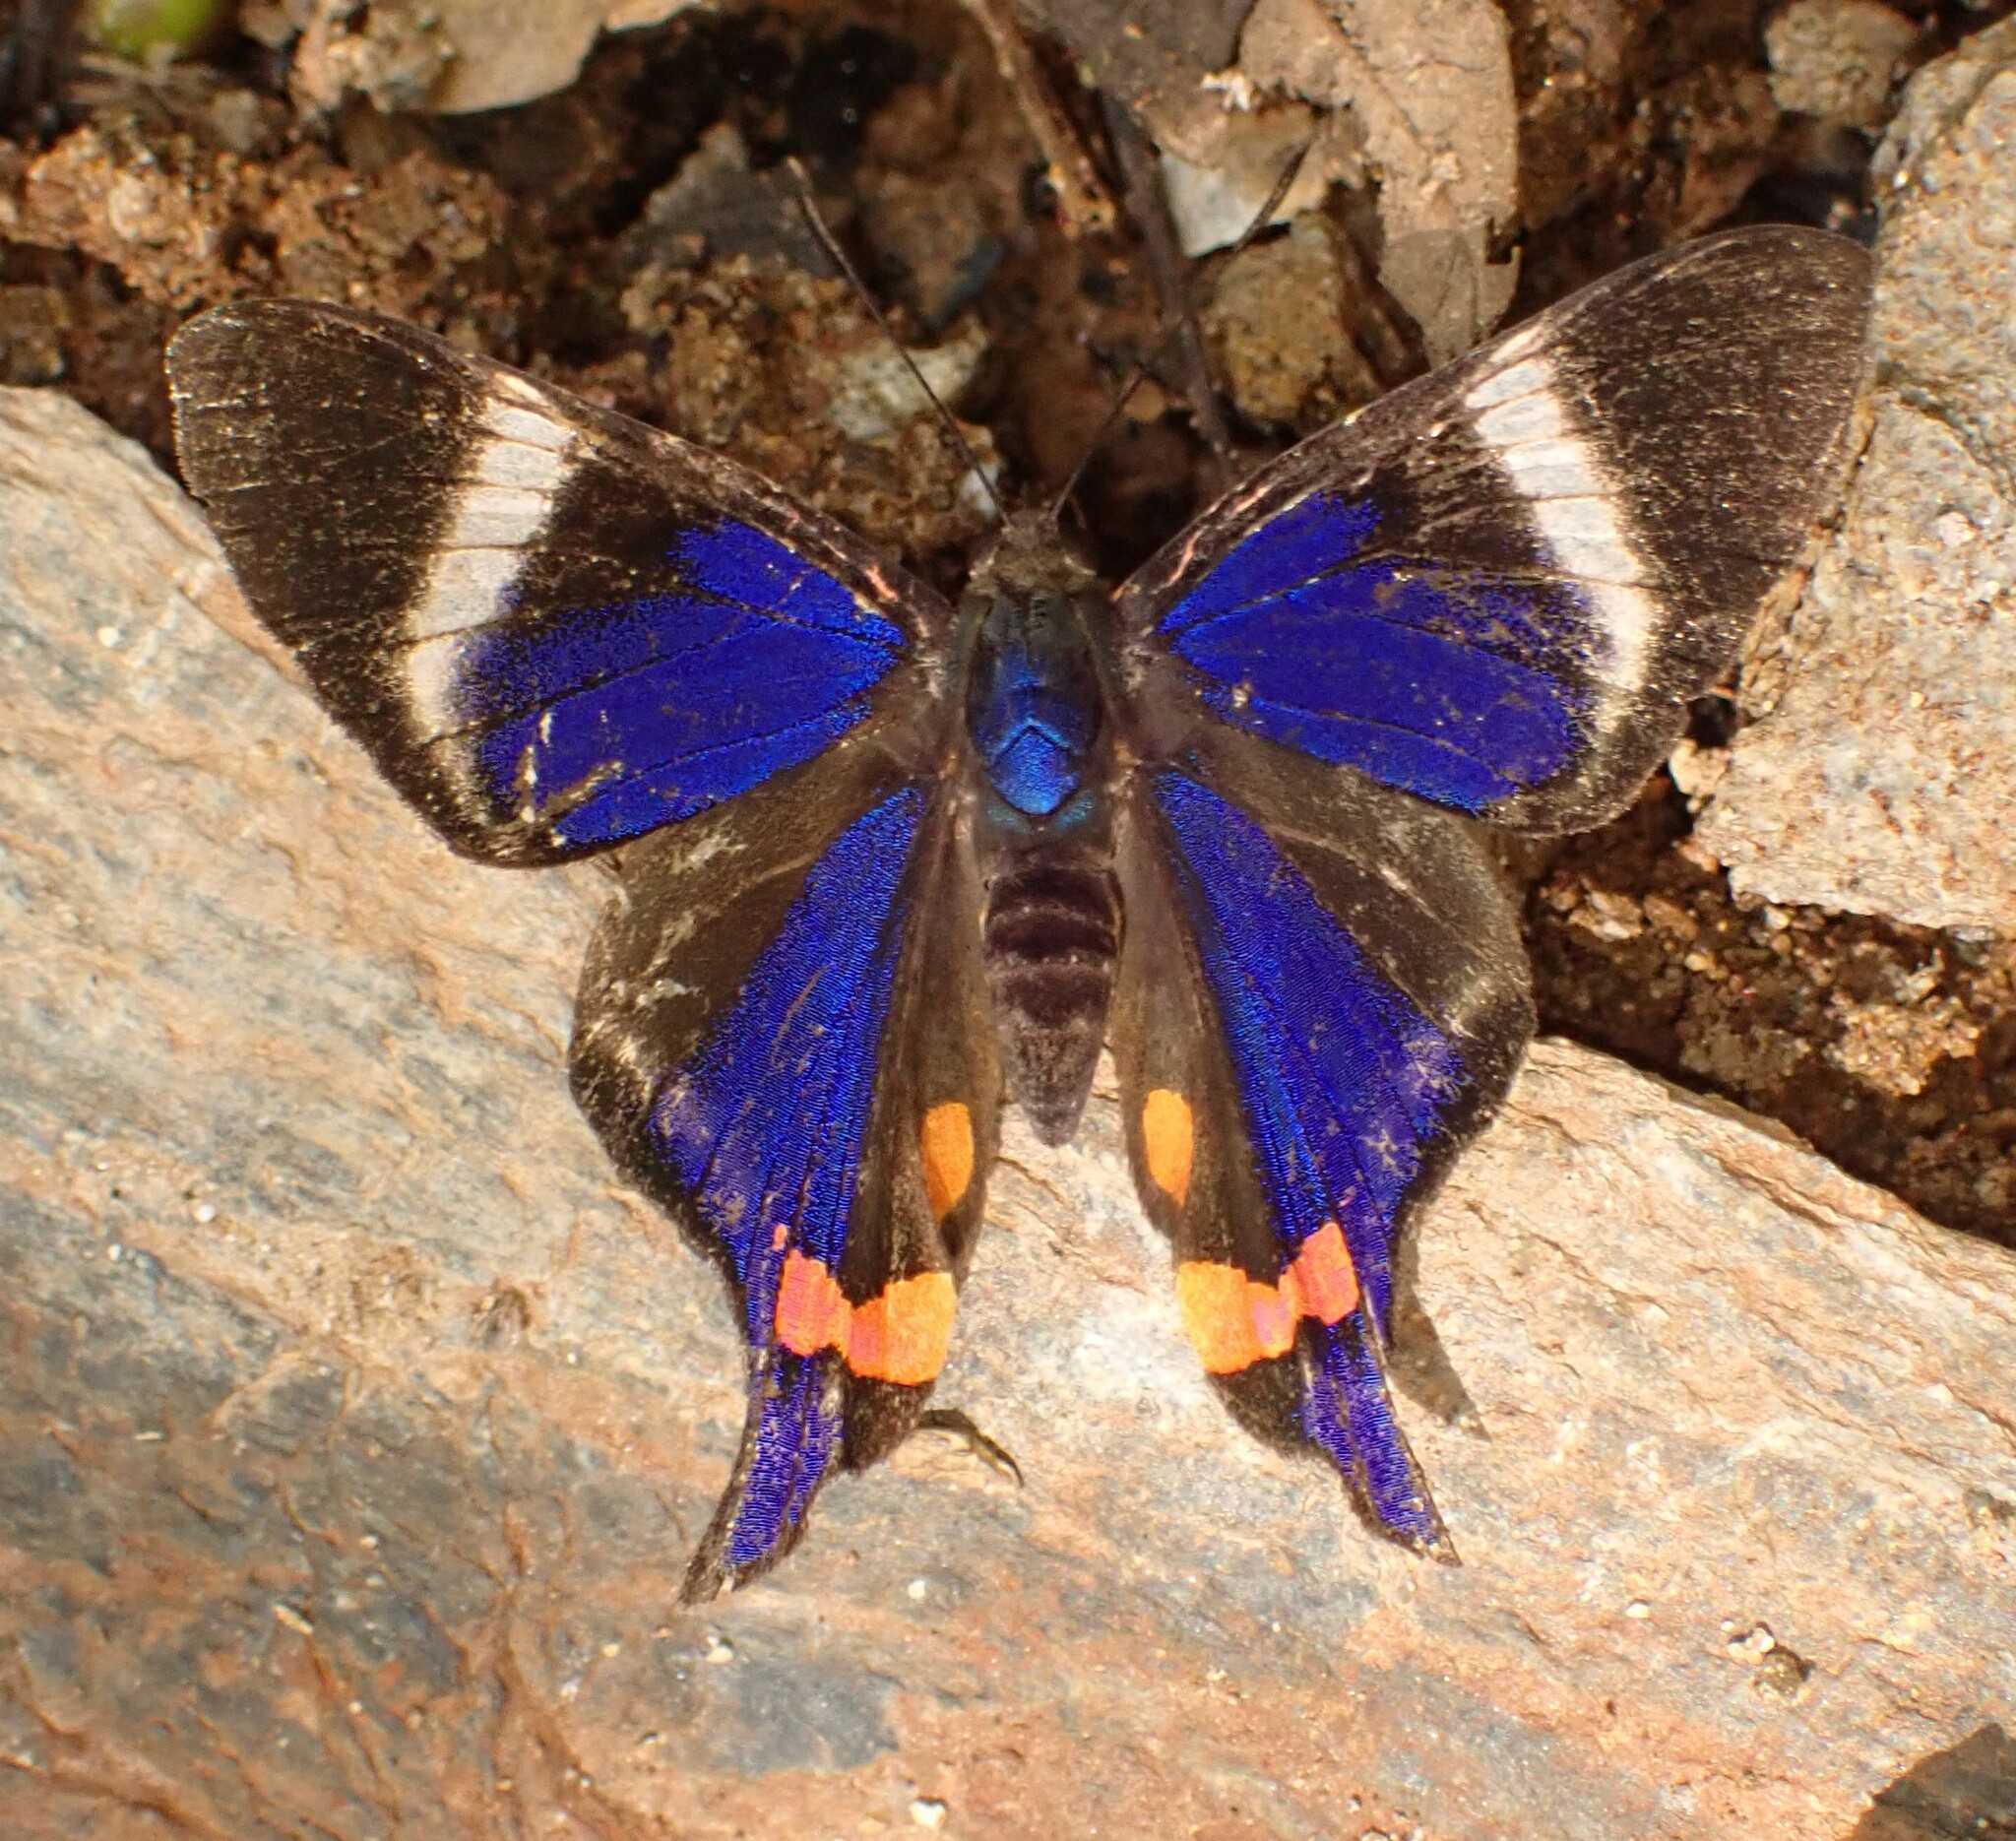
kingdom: Animalia
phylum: Arthropoda
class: Insecta
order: Lepidoptera
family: Riodinidae
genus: Rhetus
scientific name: Rhetus periander
